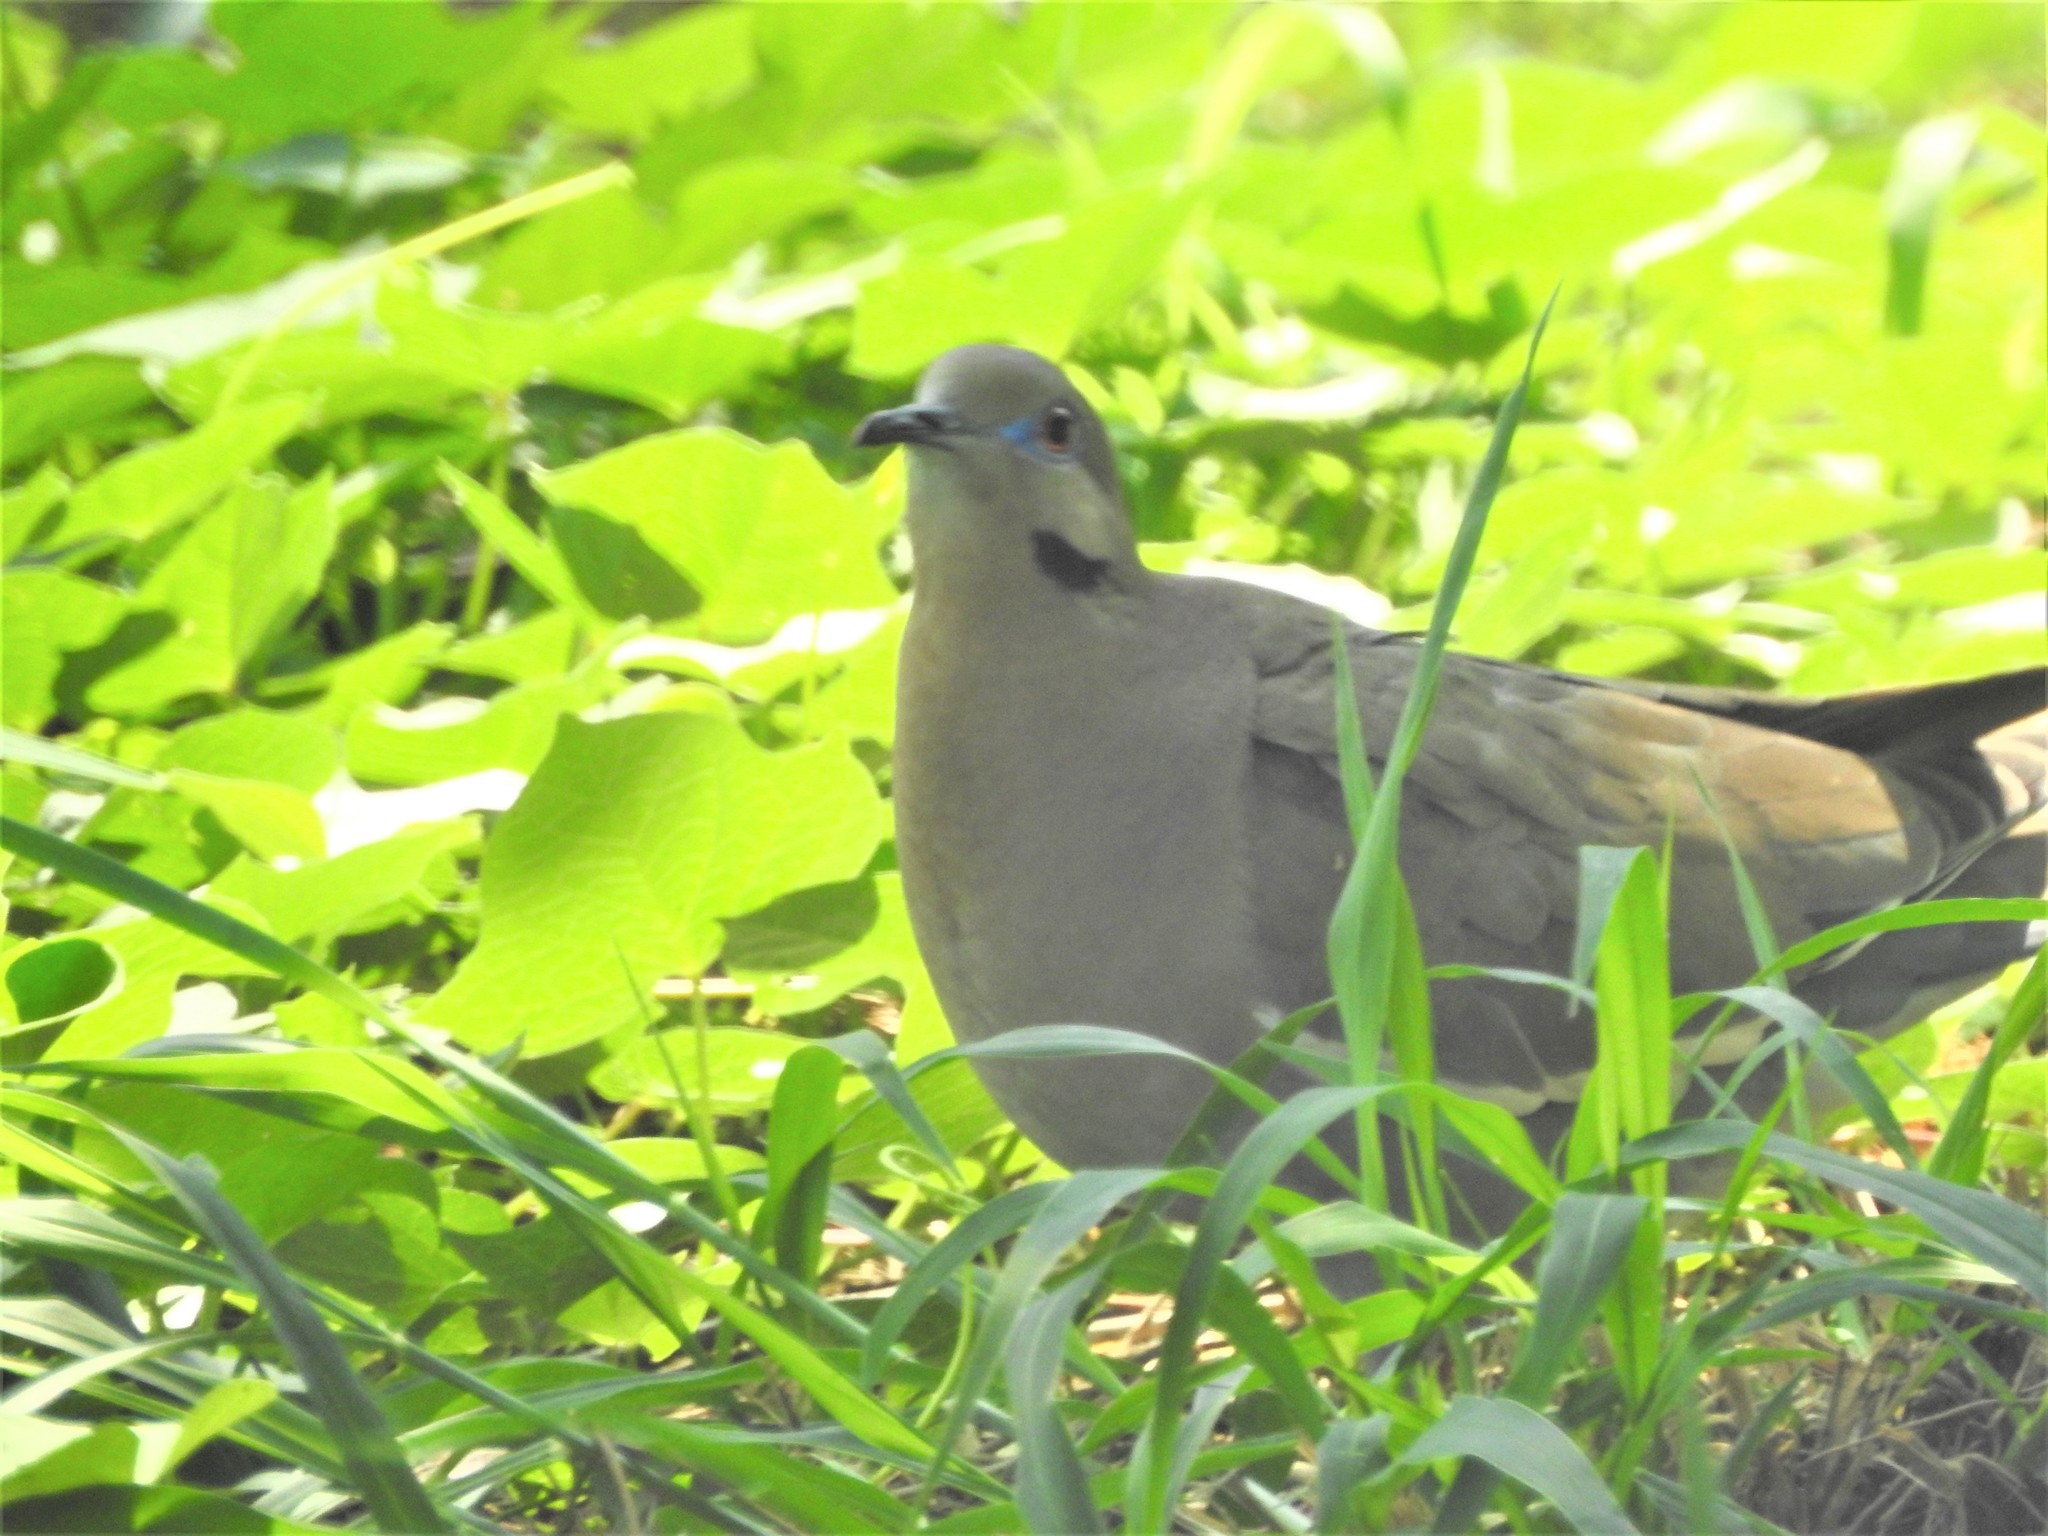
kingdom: Animalia
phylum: Chordata
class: Aves
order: Columbiformes
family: Columbidae
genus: Zenaida
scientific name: Zenaida asiatica
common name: White-winged dove
